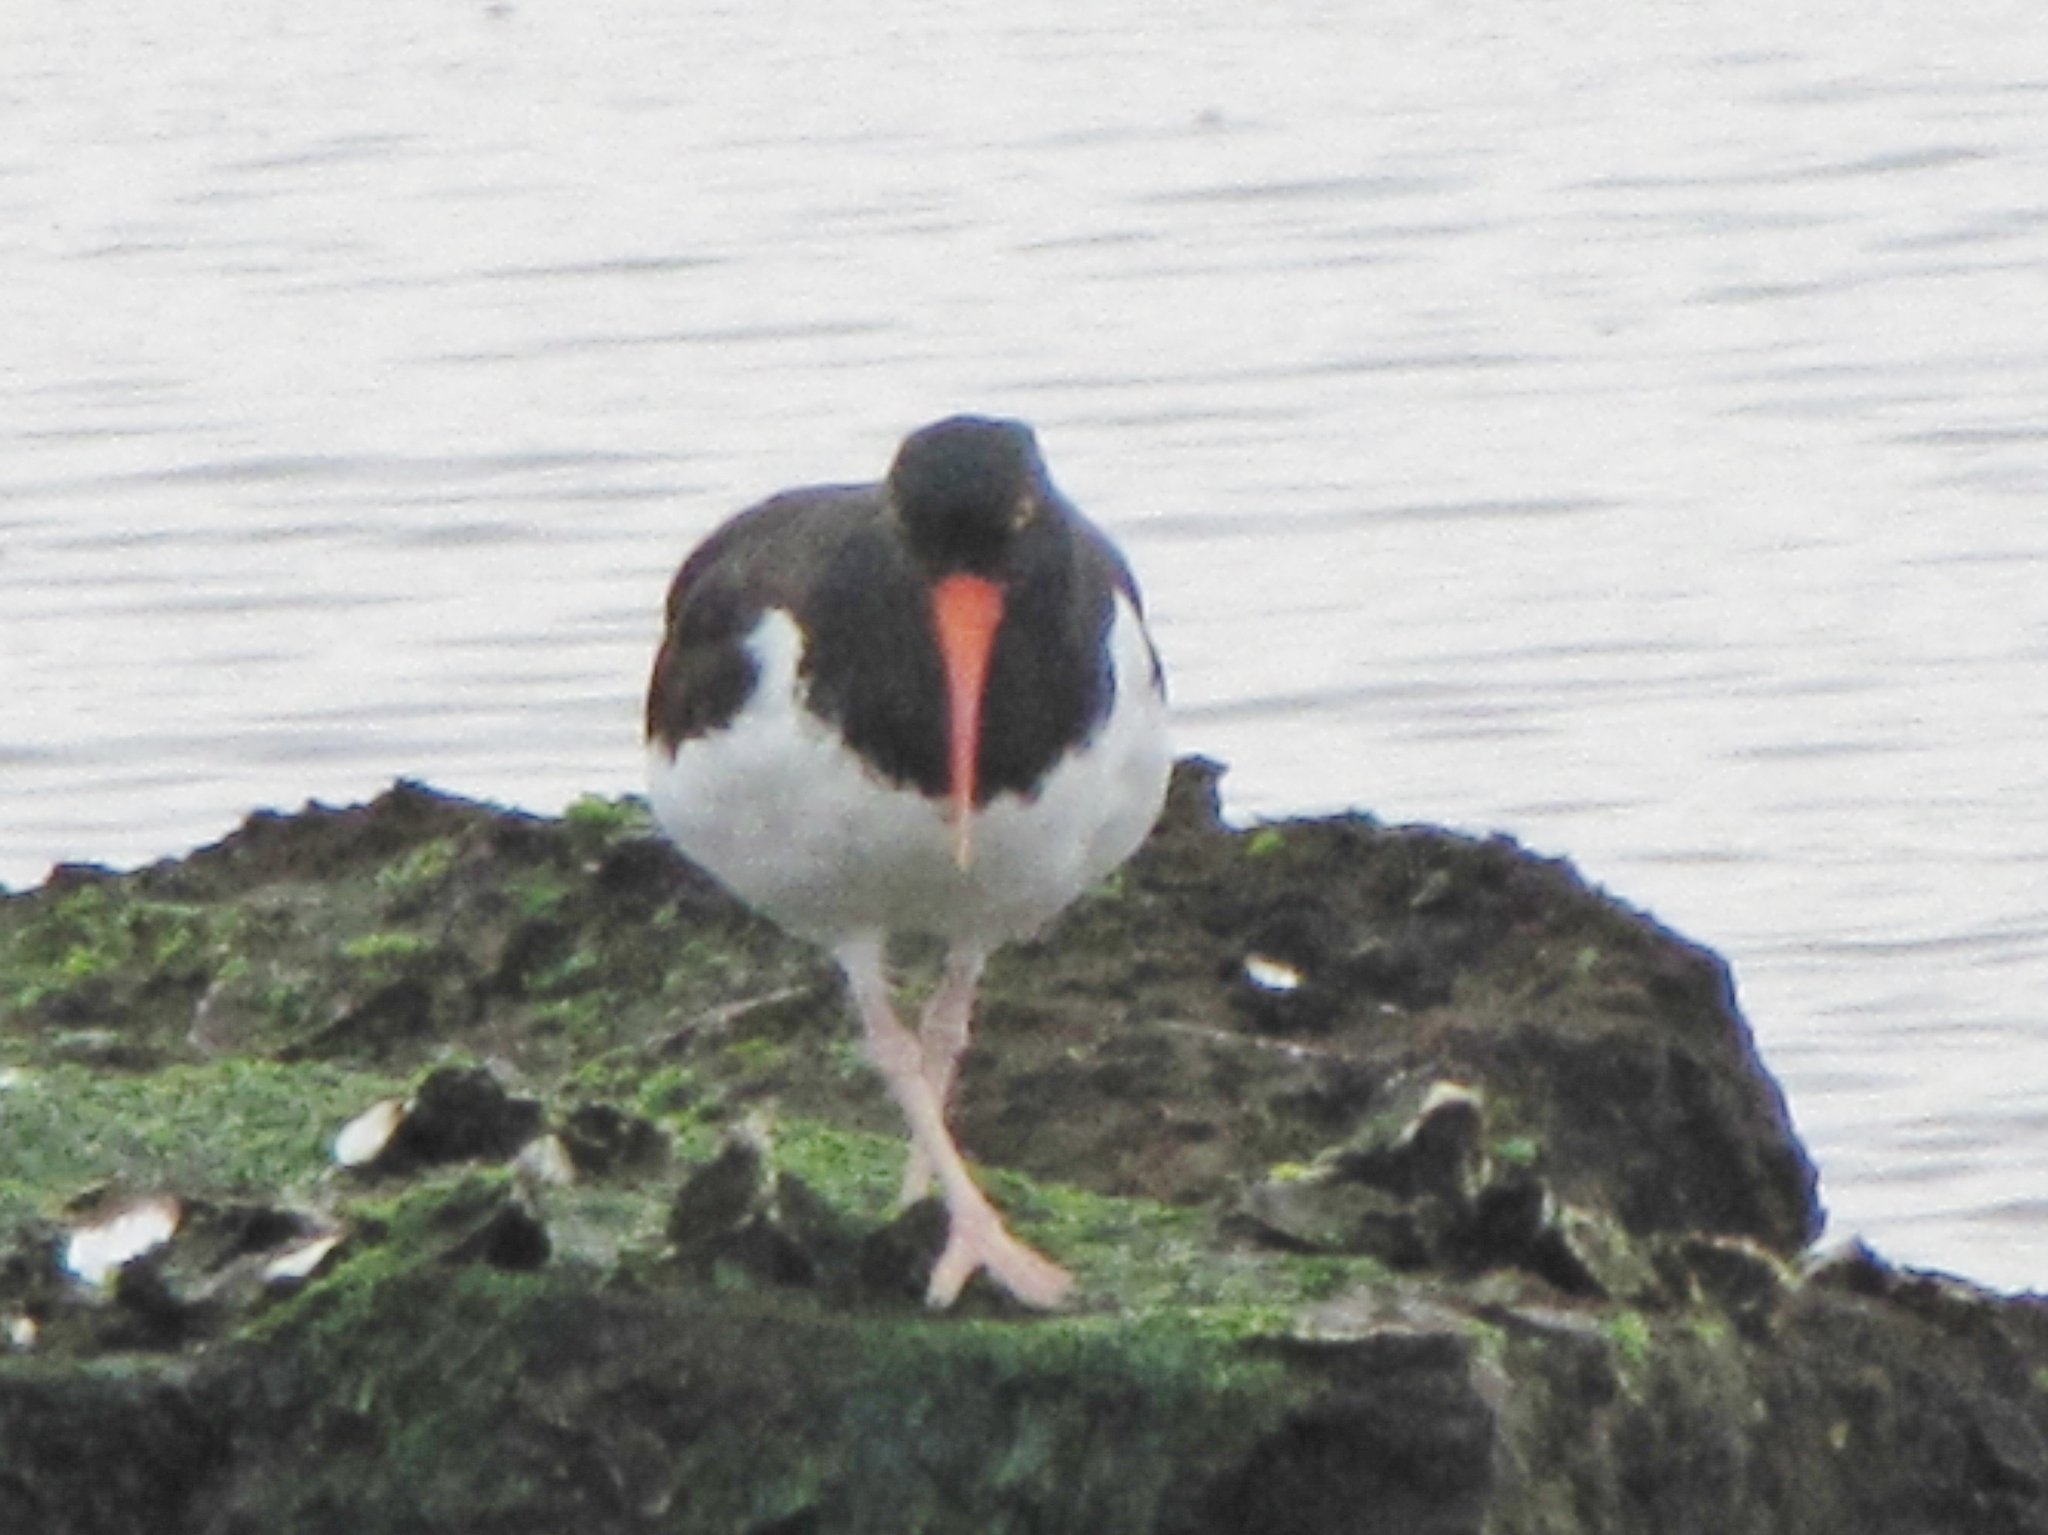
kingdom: Animalia
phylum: Chordata
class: Aves
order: Charadriiformes
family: Haematopodidae
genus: Haematopus
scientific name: Haematopus palliatus
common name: American oystercatcher
